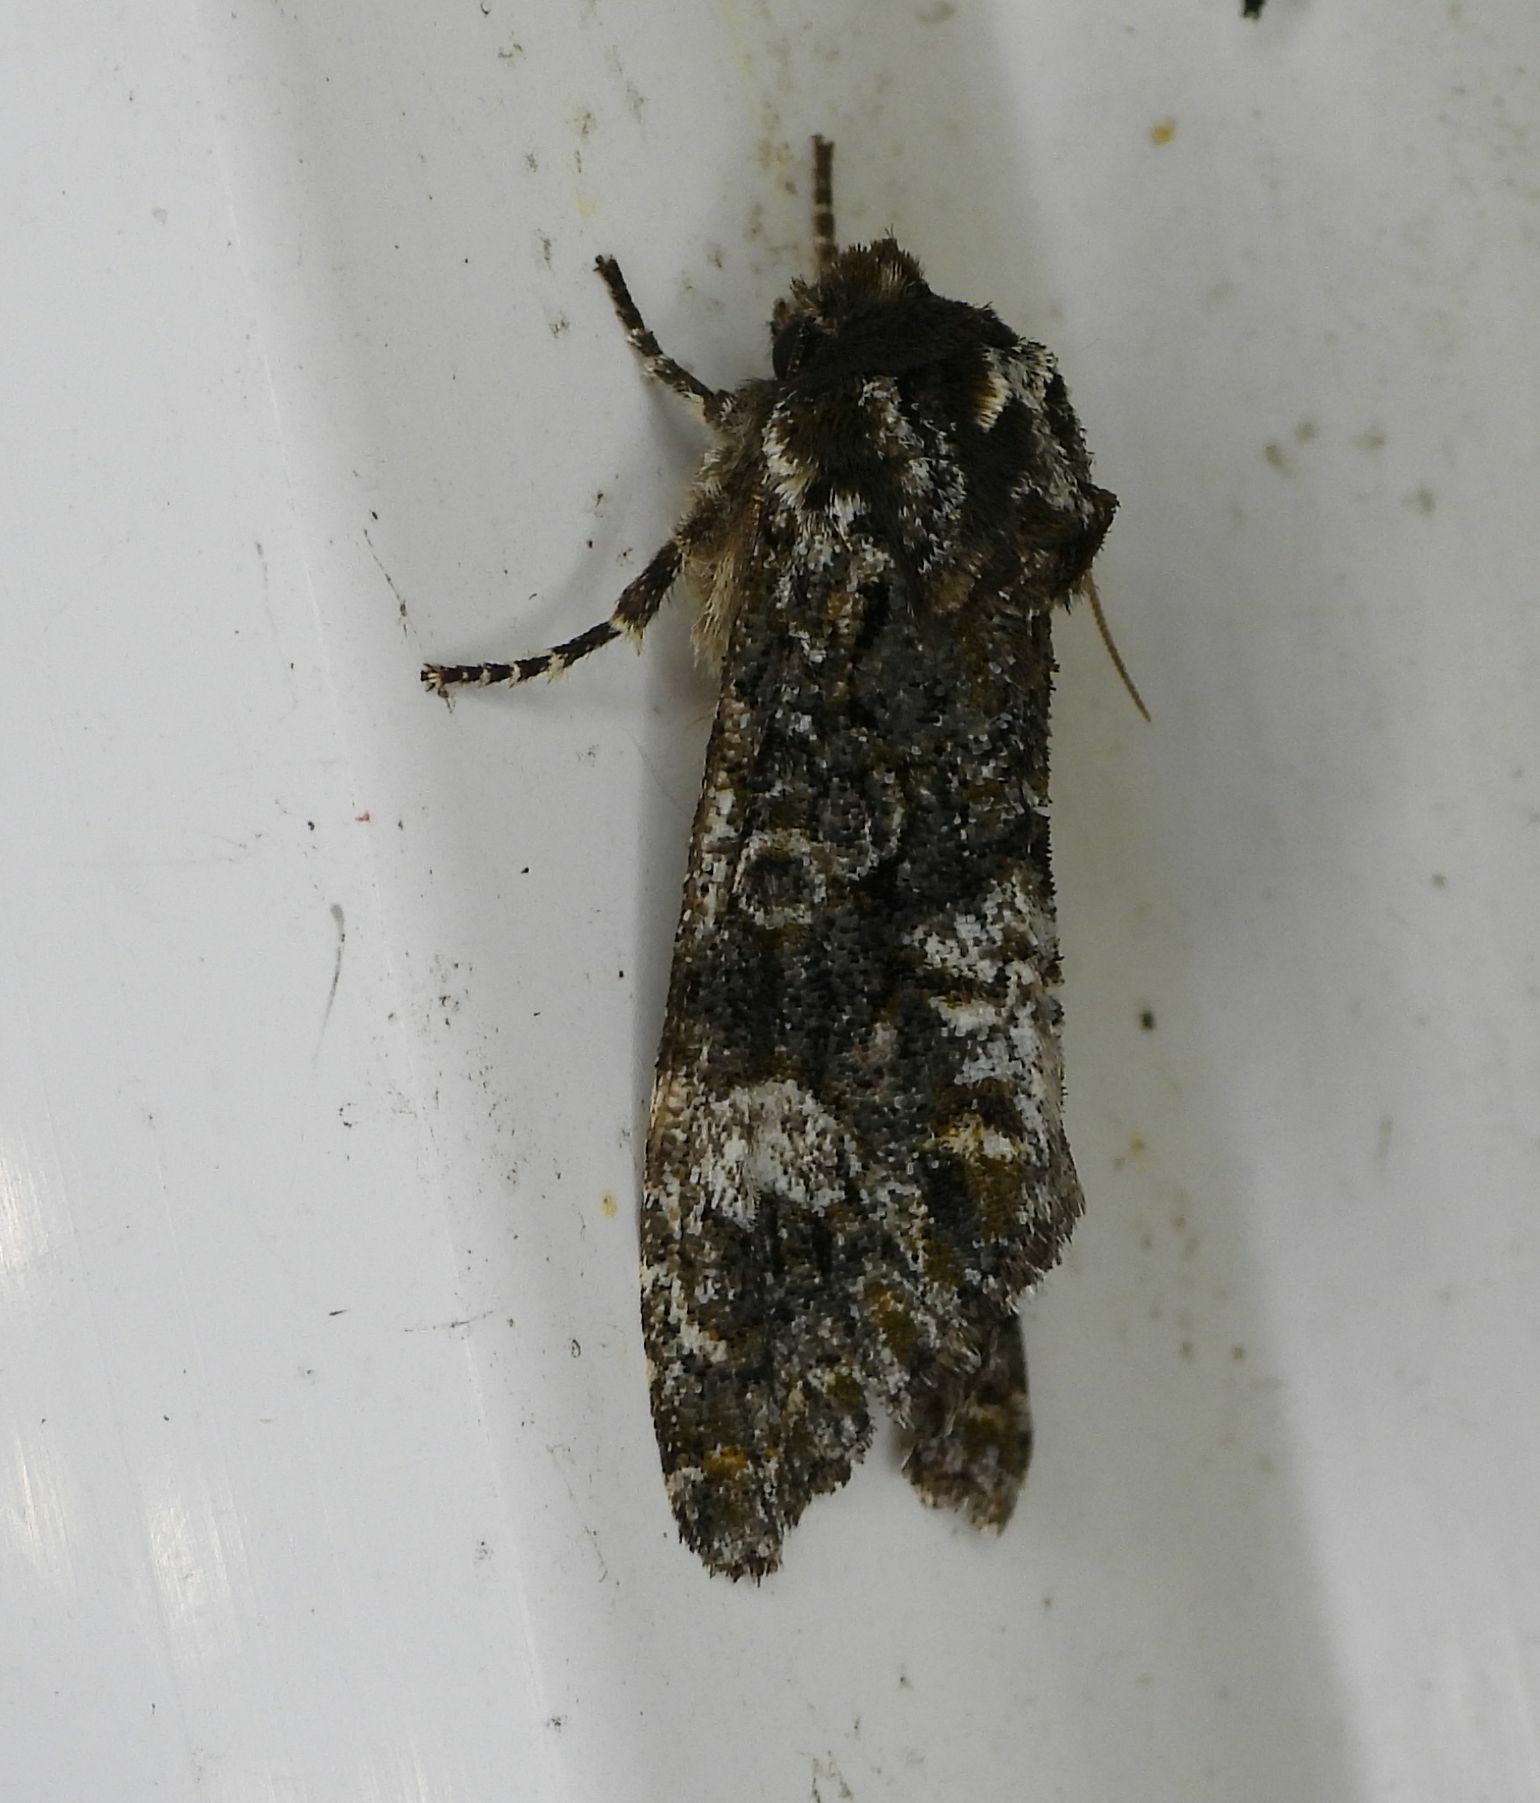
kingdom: Animalia
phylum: Arthropoda
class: Insecta
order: Lepidoptera
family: Noctuidae
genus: Psaphida
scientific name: Psaphida grotei
